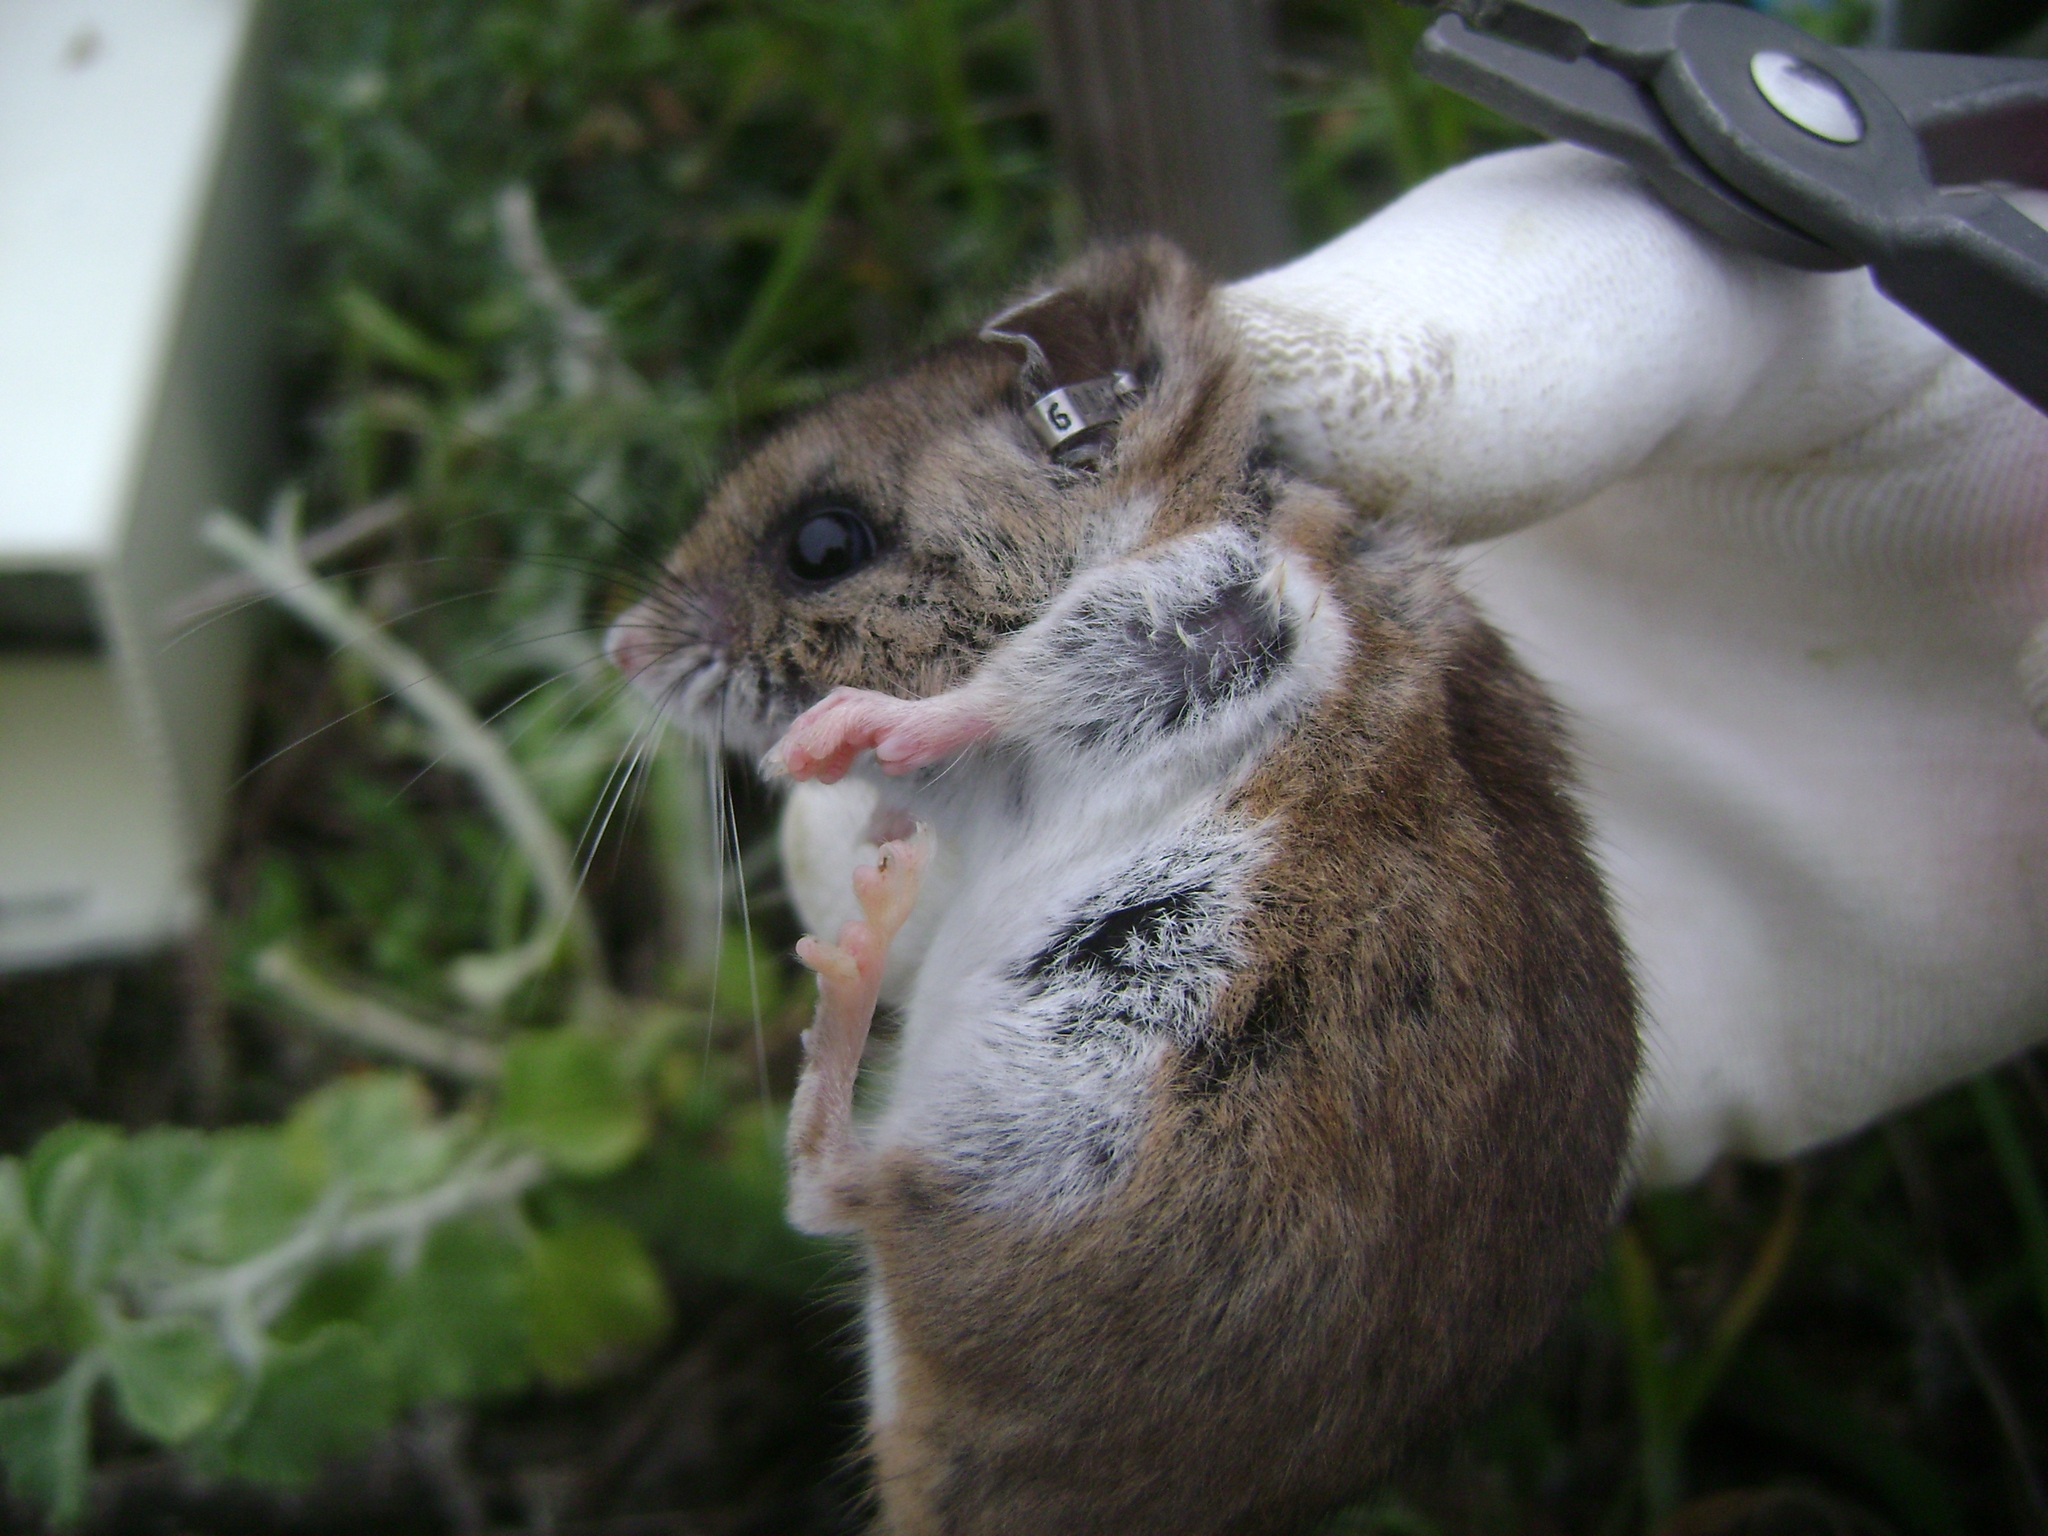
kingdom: Animalia
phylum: Chordata
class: Mammalia
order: Rodentia
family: Cricetidae
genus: Peromyscus
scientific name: Peromyscus maniculatus
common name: Deer mouse
